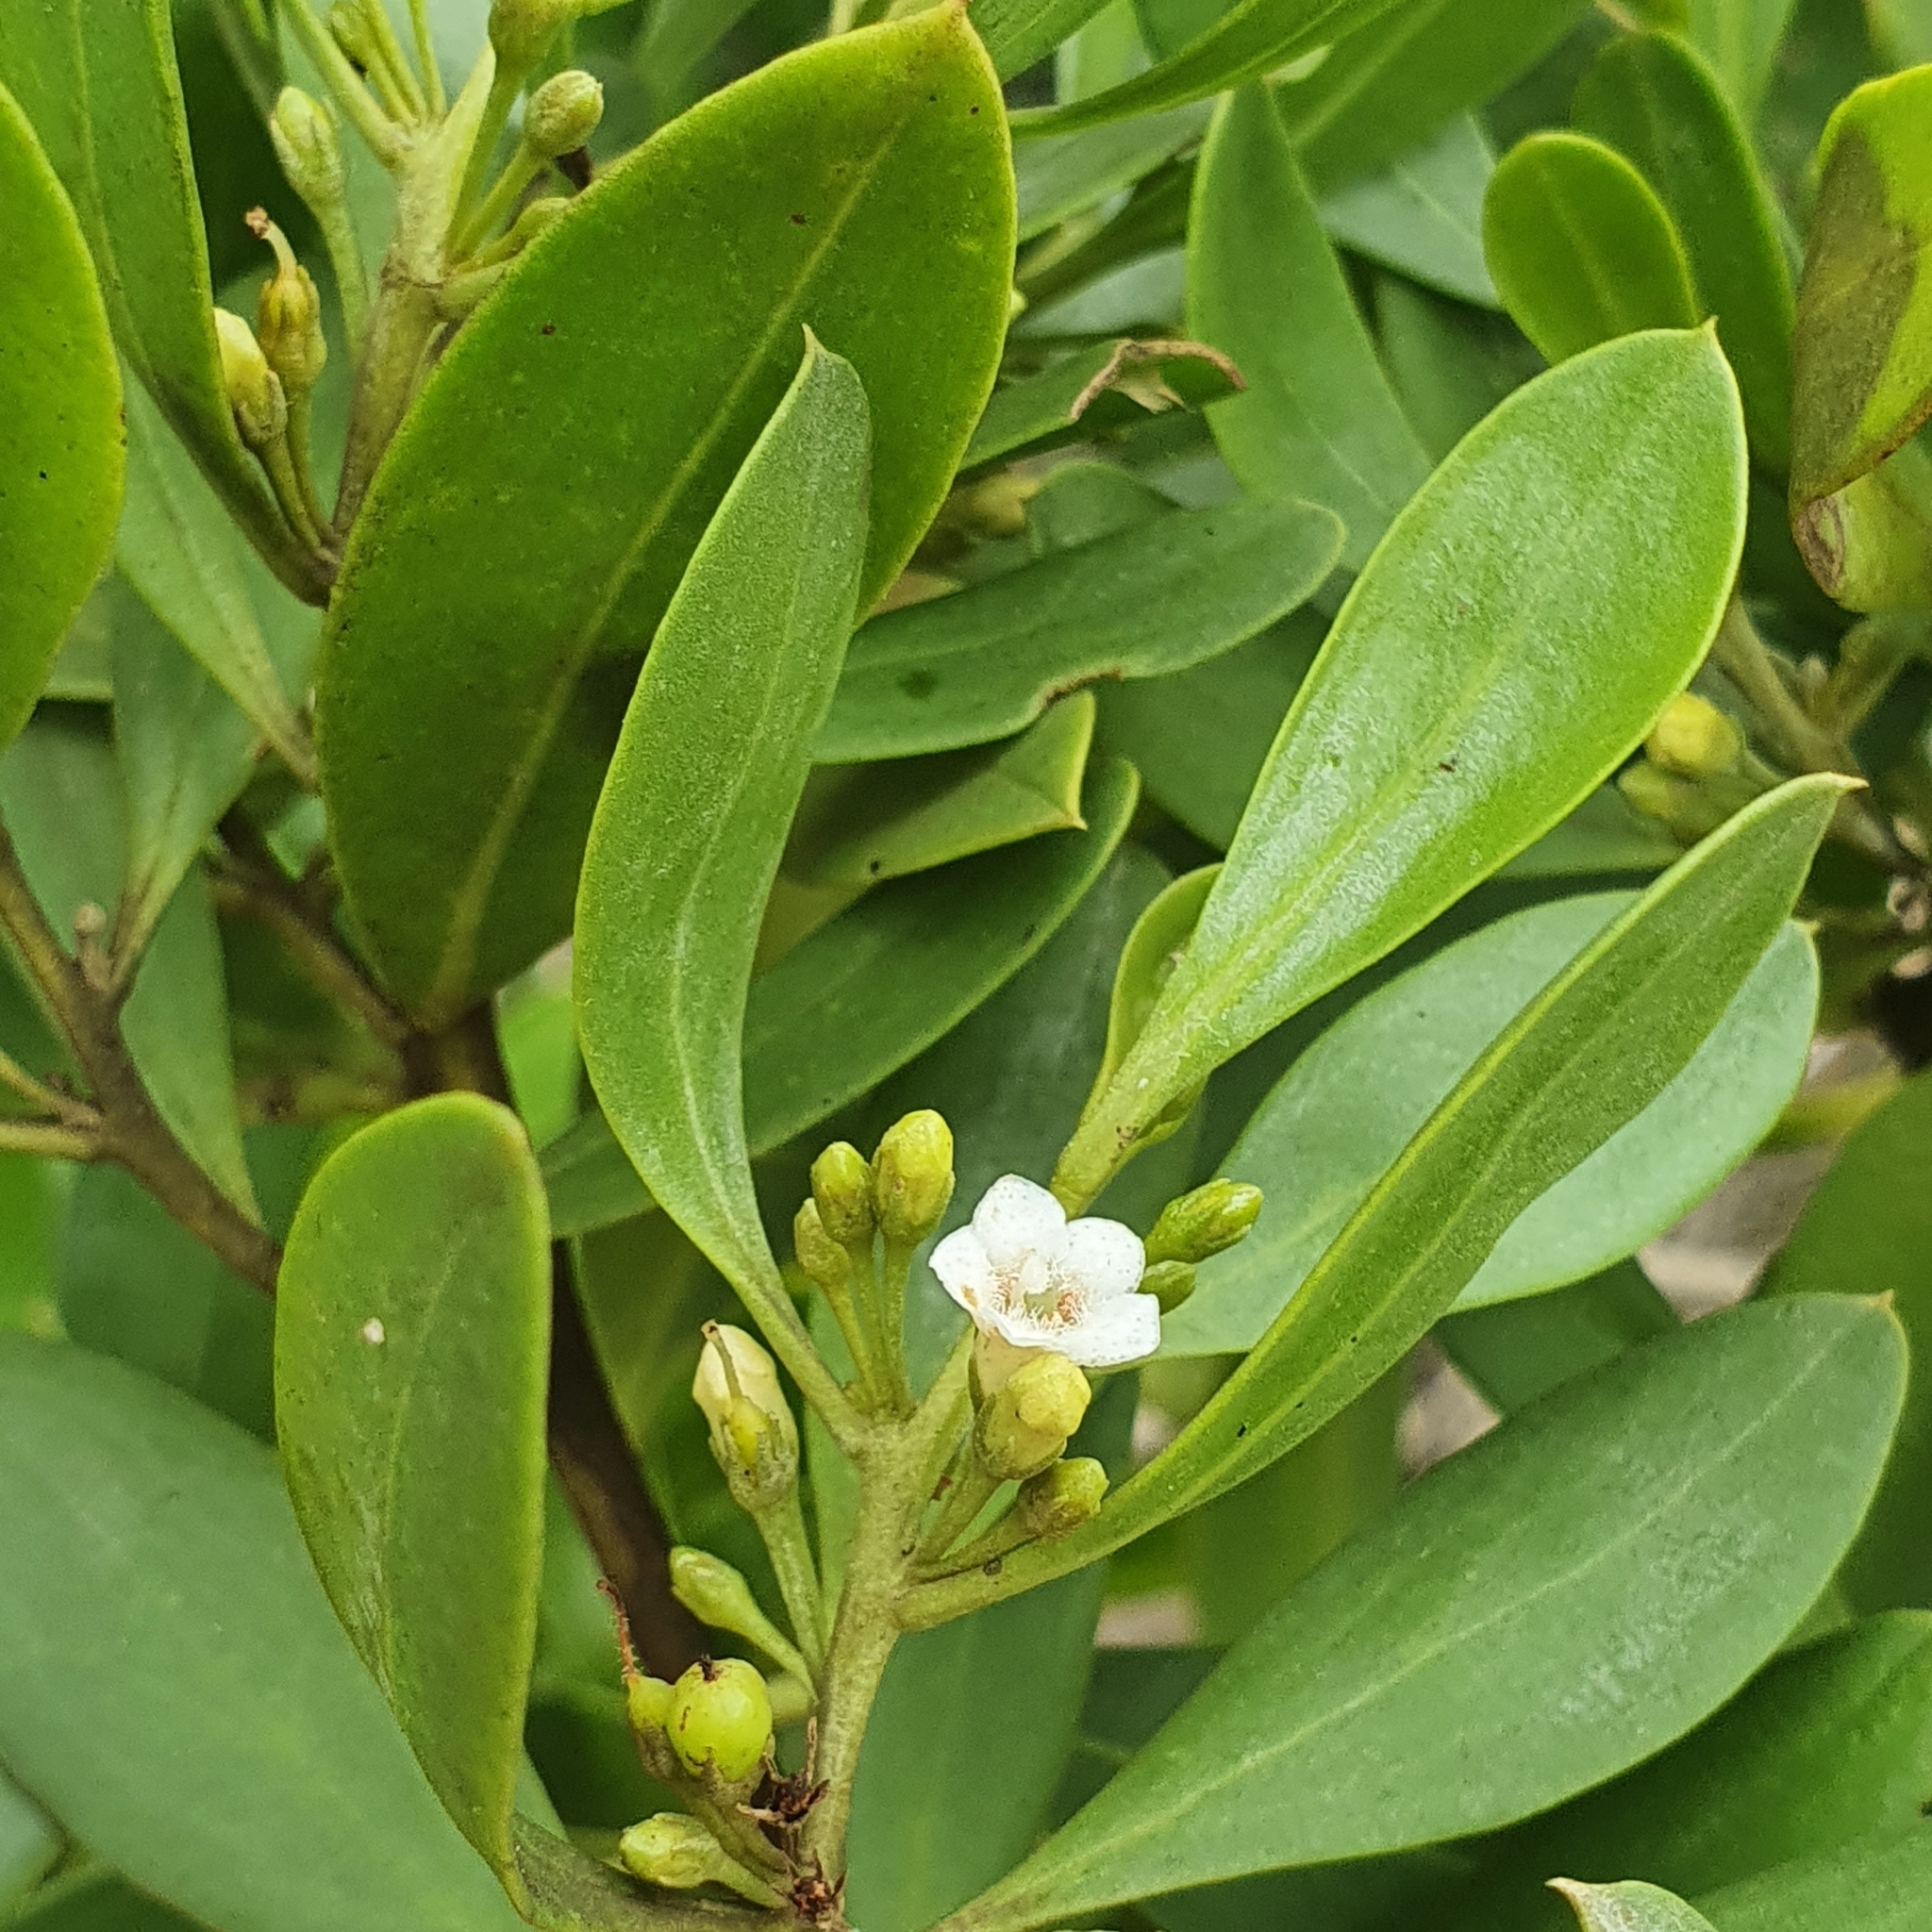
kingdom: Plantae
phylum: Tracheophyta
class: Magnoliopsida
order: Lamiales
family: Scrophulariaceae
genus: Myoporum
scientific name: Myoporum boninense
